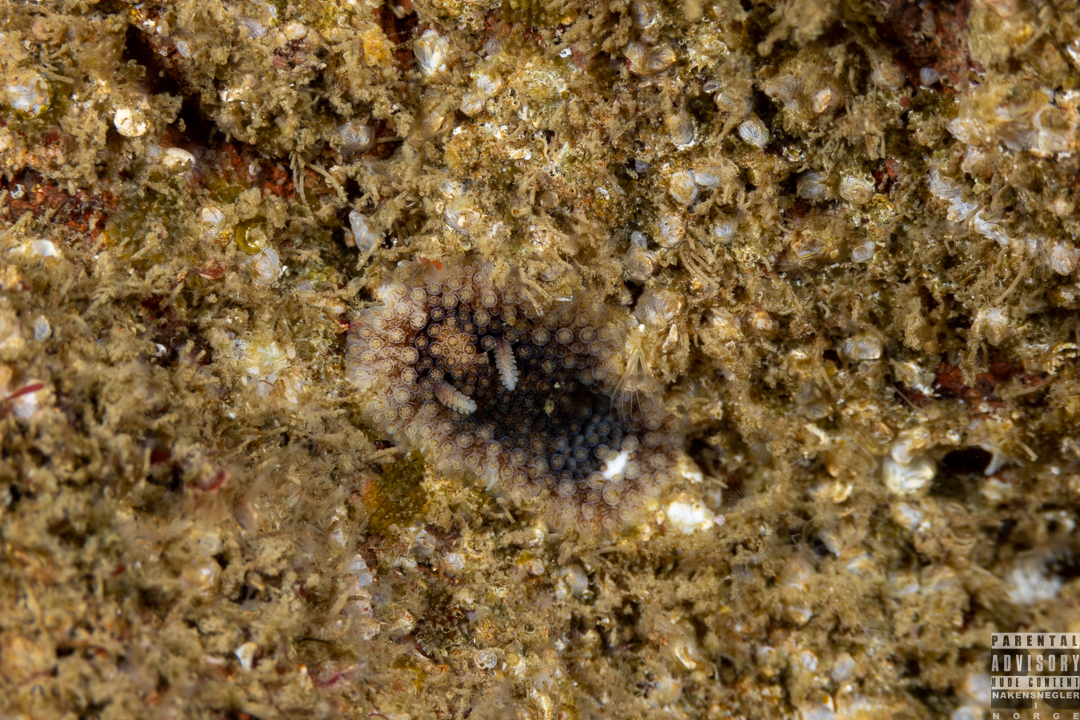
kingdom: Animalia
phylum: Mollusca
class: Gastropoda
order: Nudibranchia
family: Onchidorididae
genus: Onchidoris
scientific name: Onchidoris bilamellata
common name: Barnacle-eating onchidoris
